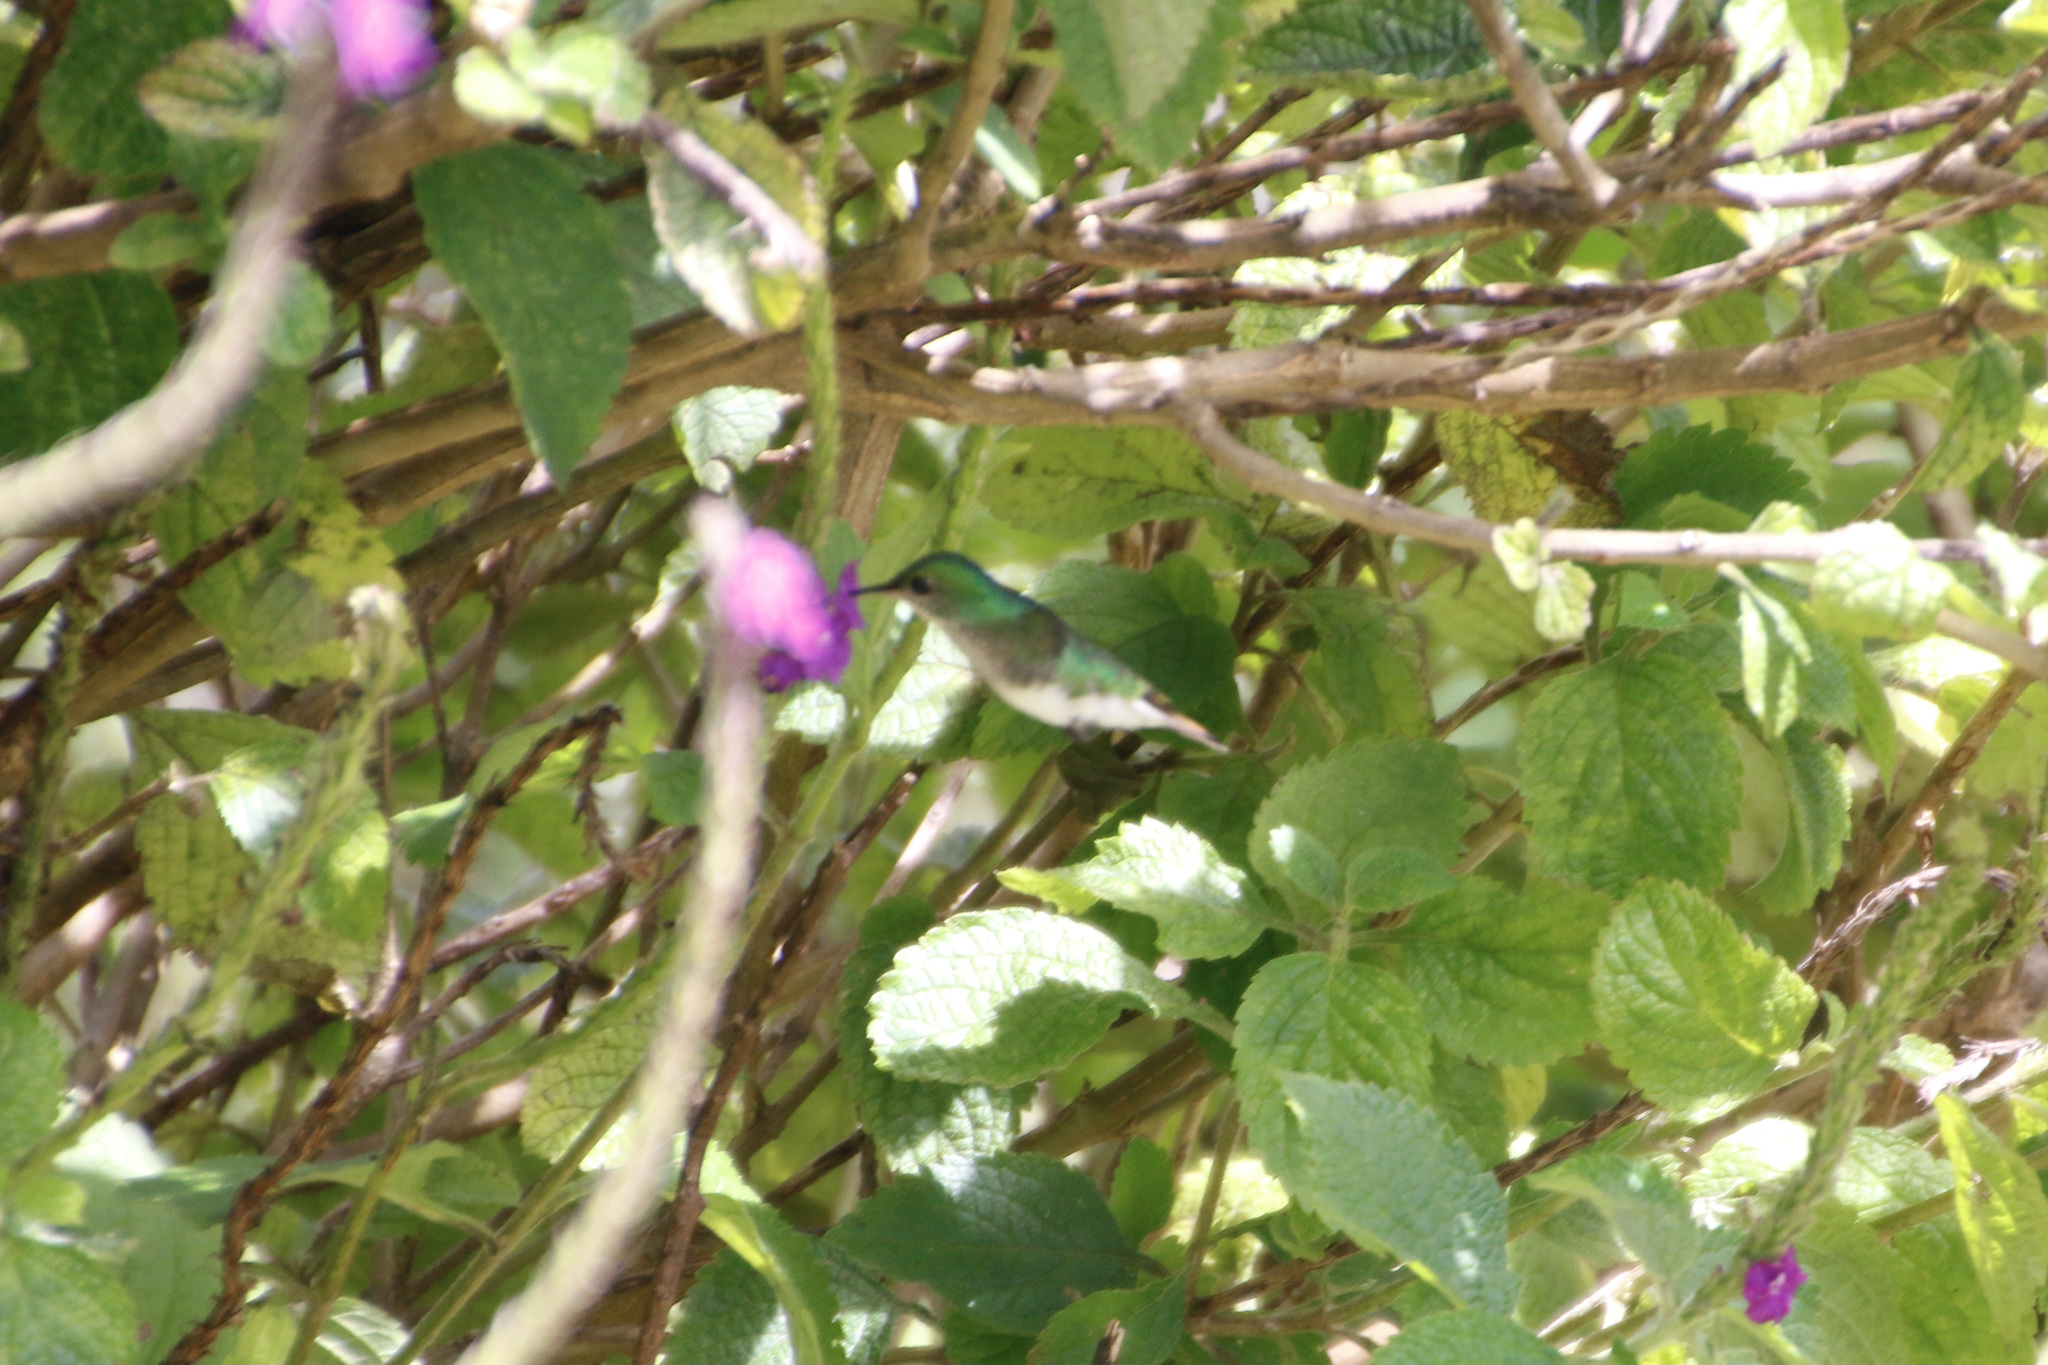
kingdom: Animalia
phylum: Chordata
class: Aves
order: Apodiformes
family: Trochilidae
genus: Microchera
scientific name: Microchera cupreiceps
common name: Coppery-headed emerald
